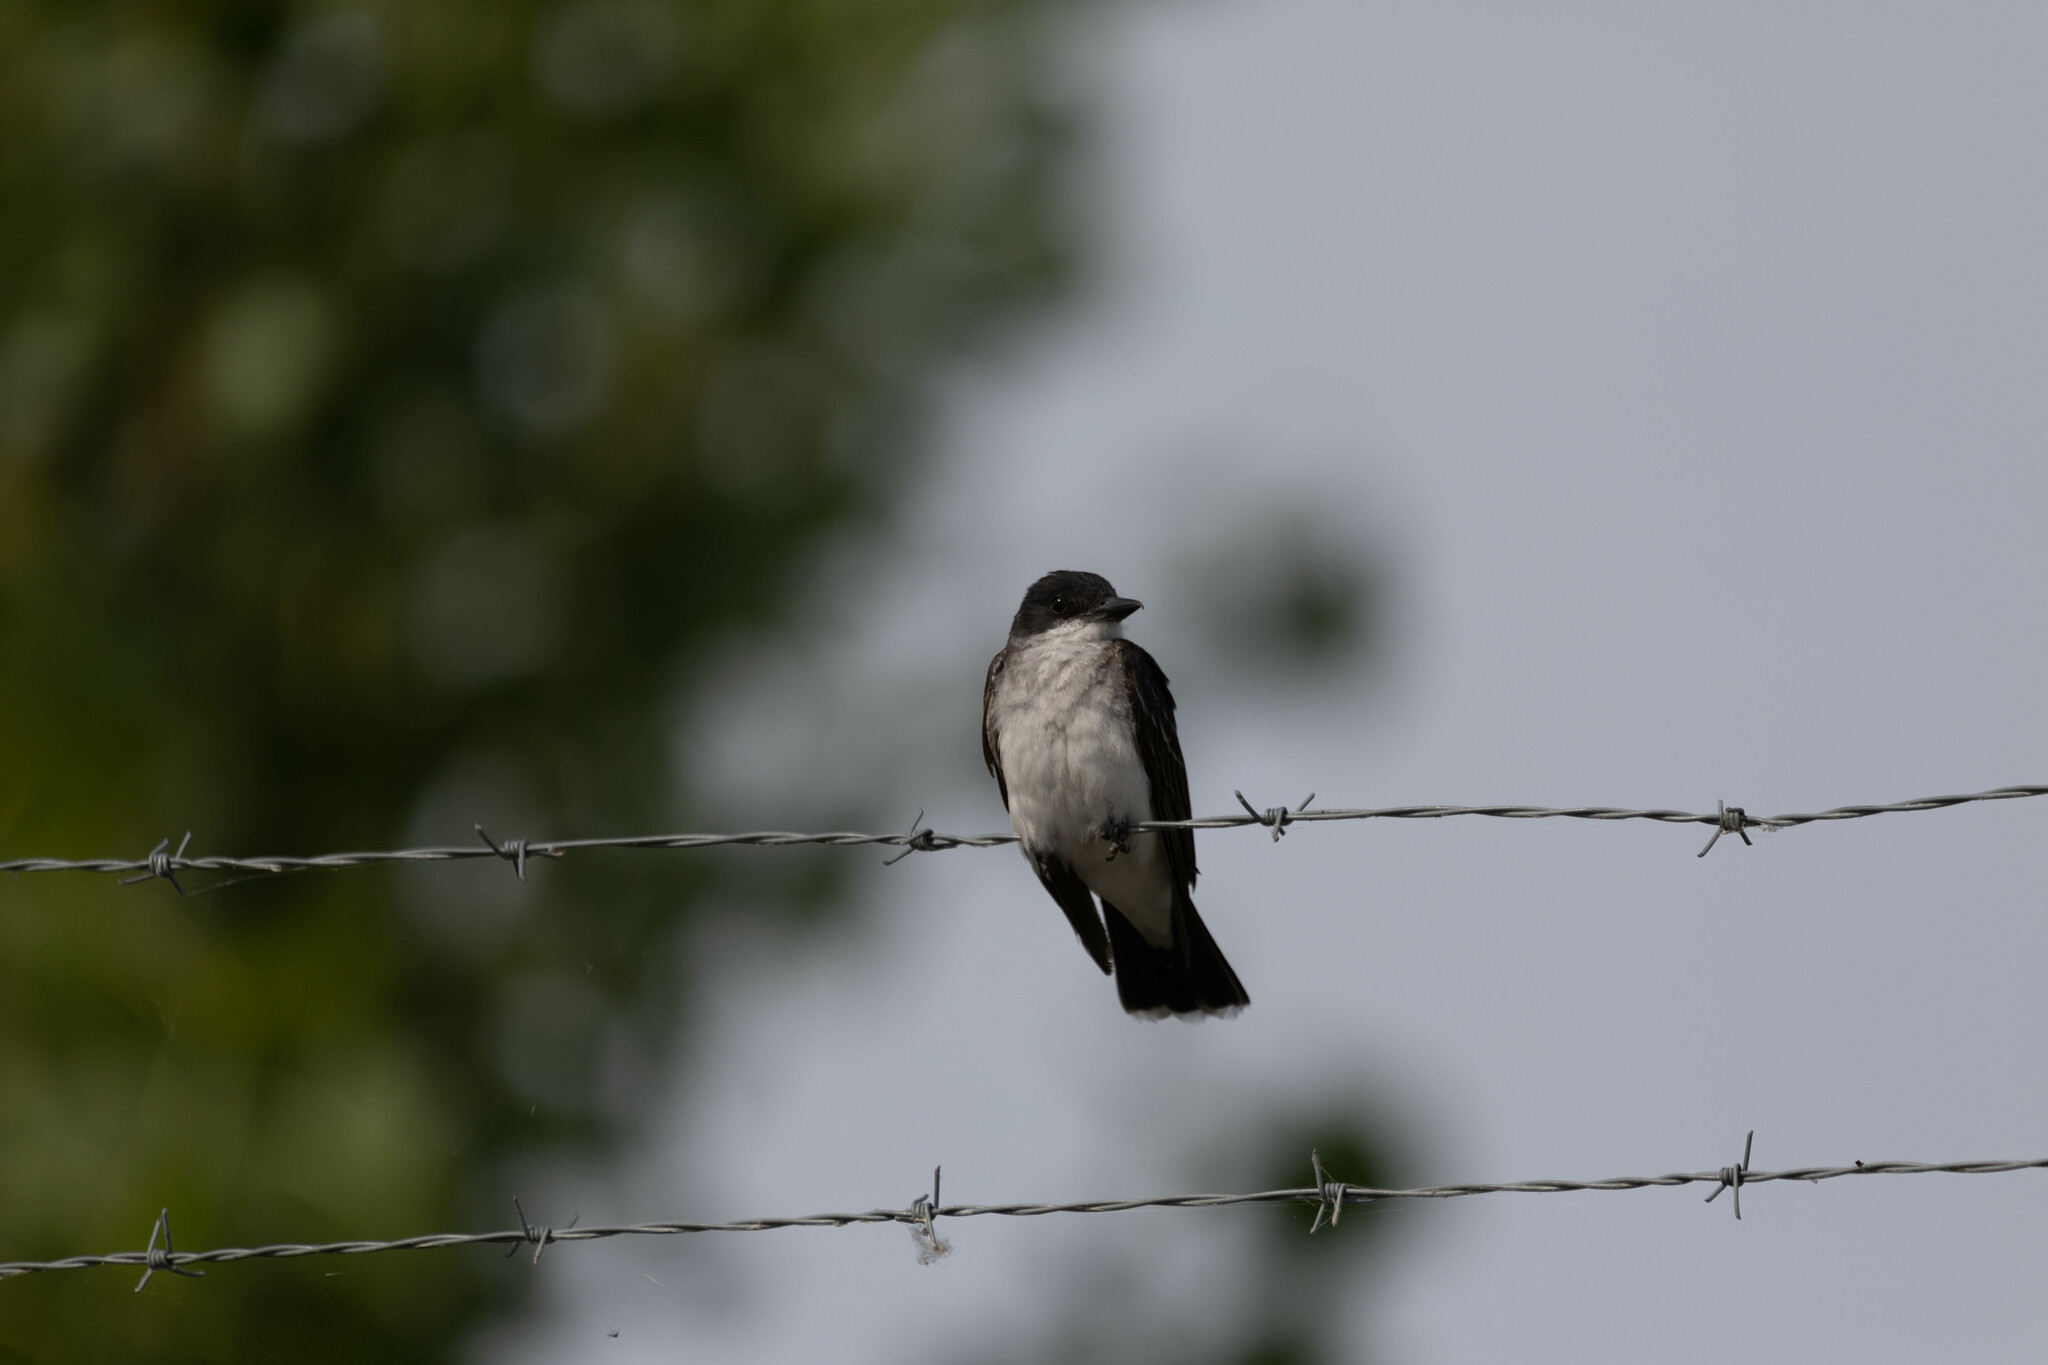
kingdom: Animalia
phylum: Chordata
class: Aves
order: Passeriformes
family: Tyrannidae
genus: Tyrannus
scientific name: Tyrannus tyrannus
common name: Eastern kingbird
